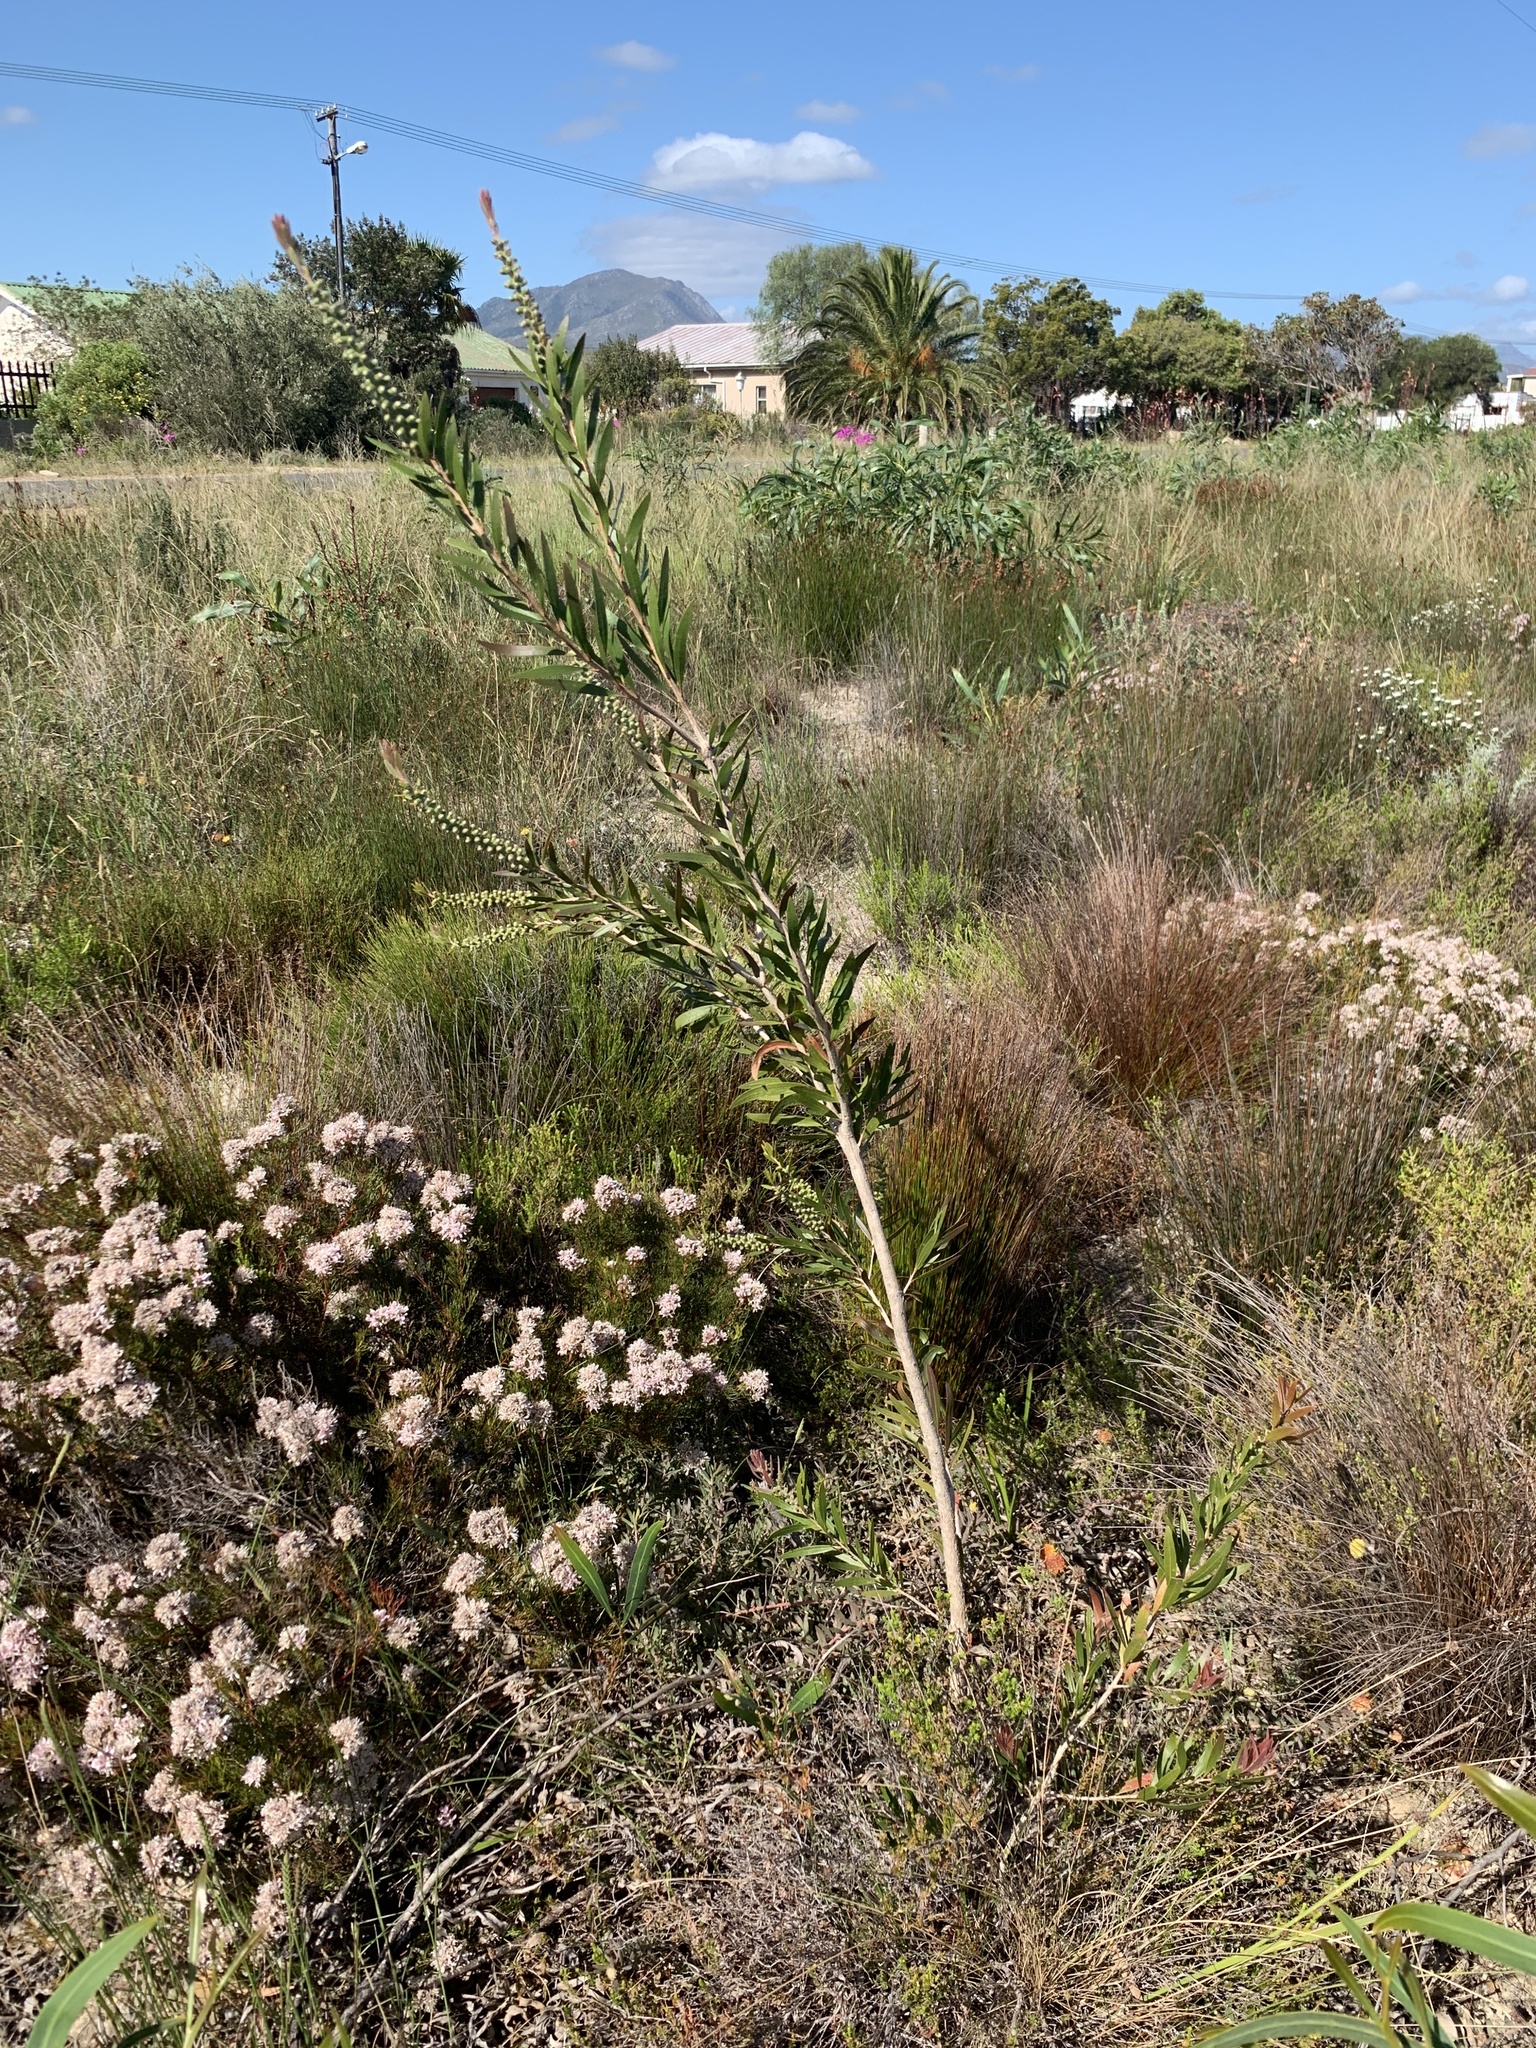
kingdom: Plantae
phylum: Tracheophyta
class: Magnoliopsida
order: Myrtales
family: Myrtaceae
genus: Callistemon
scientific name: Callistemon viminalis
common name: Drooping bottlebrush
